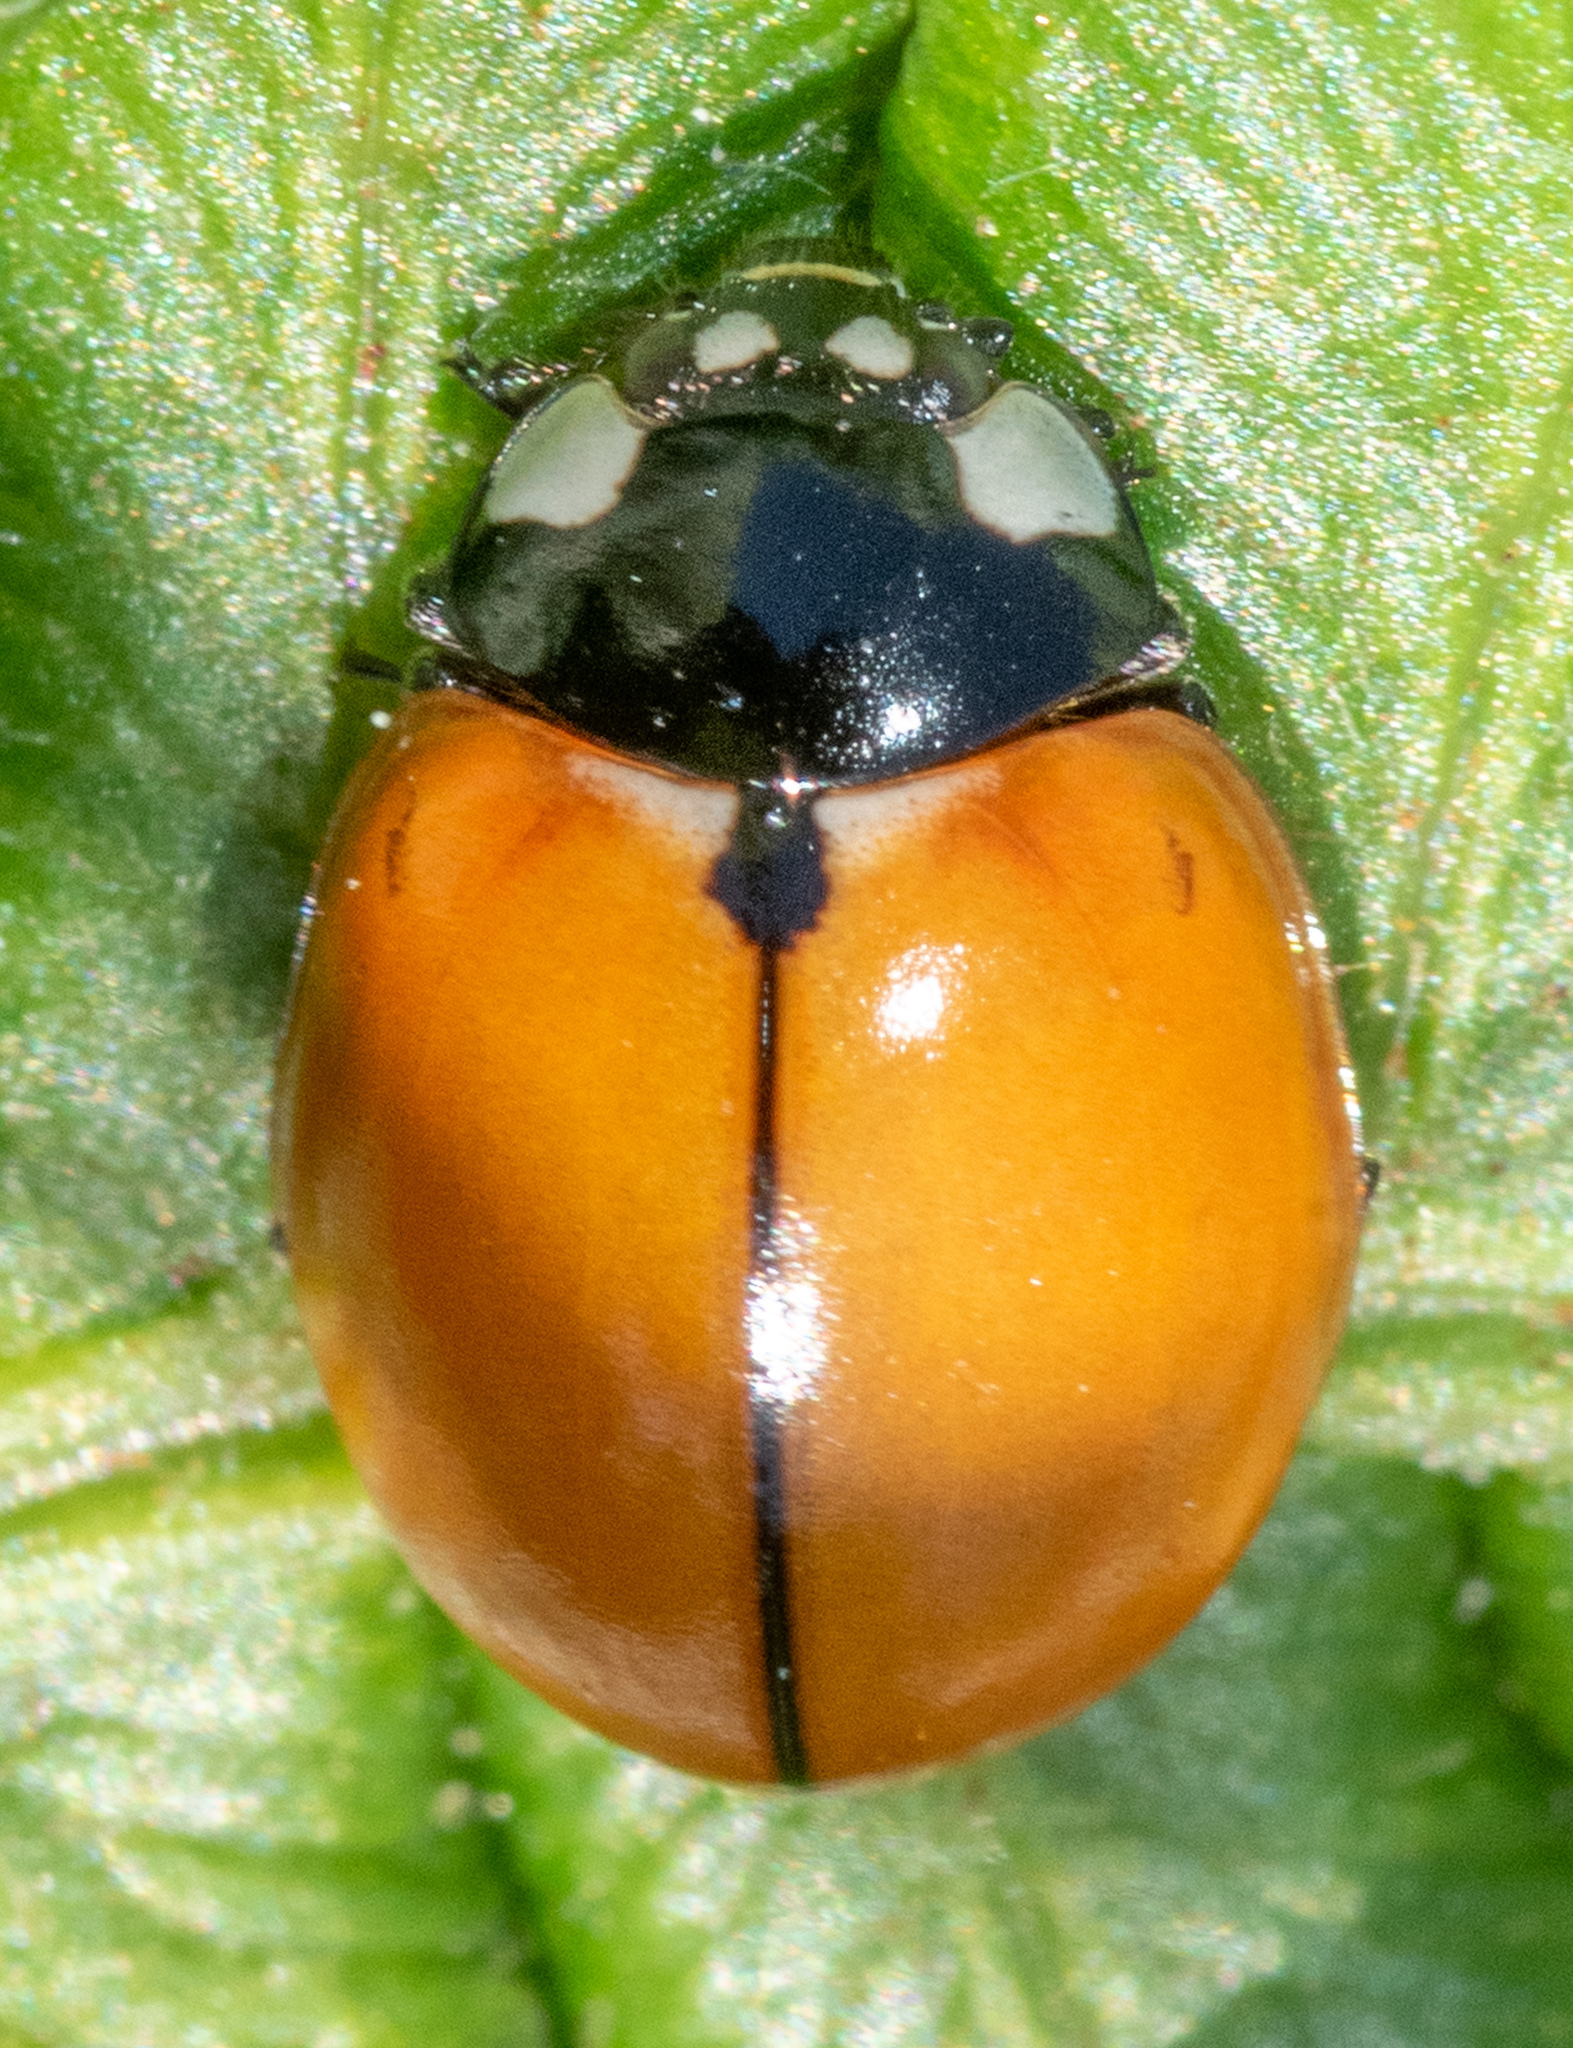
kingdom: Animalia
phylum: Arthropoda
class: Insecta
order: Coleoptera
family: Coccinellidae
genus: Coccinella
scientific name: Coccinella californica
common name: Lady beetle
